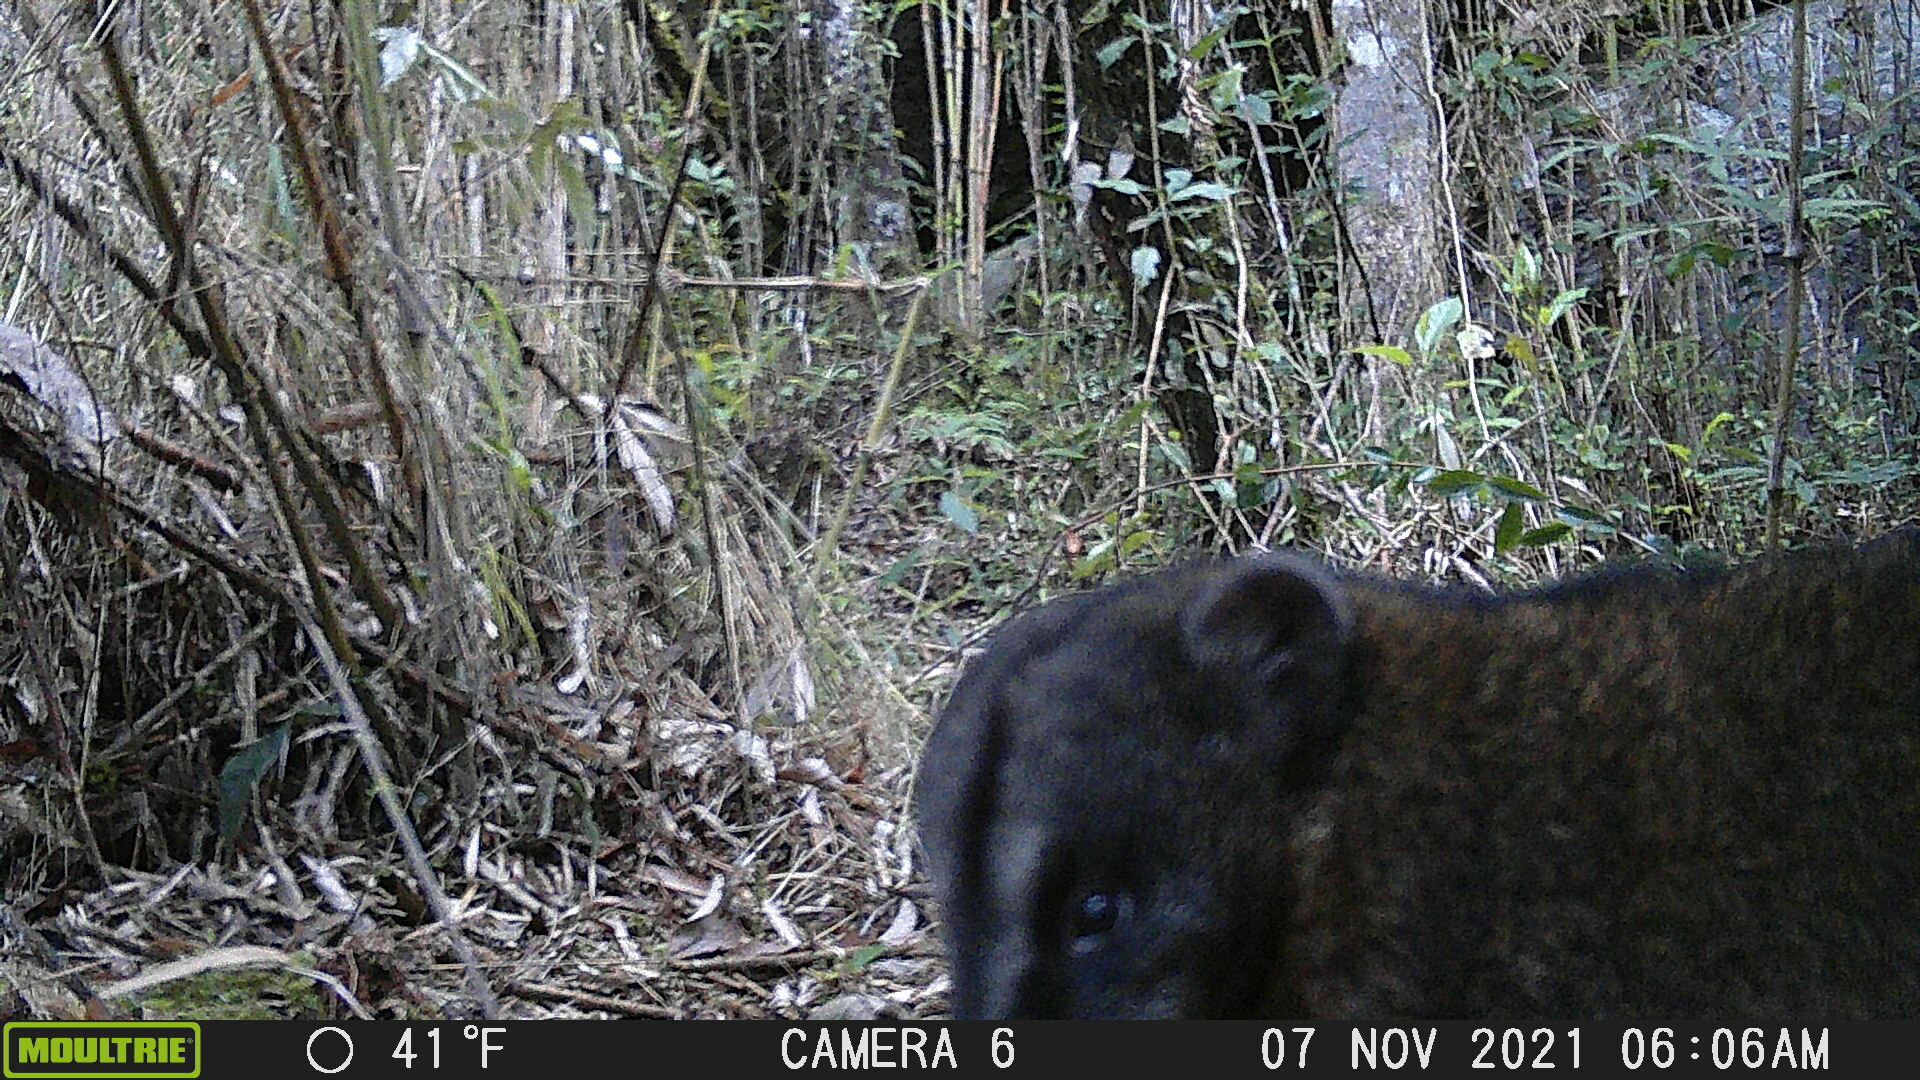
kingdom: Animalia
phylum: Chordata
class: Mammalia
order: Carnivora
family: Procyonidae
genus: Nasua
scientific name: Nasua olivacea
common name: Mountain coati
